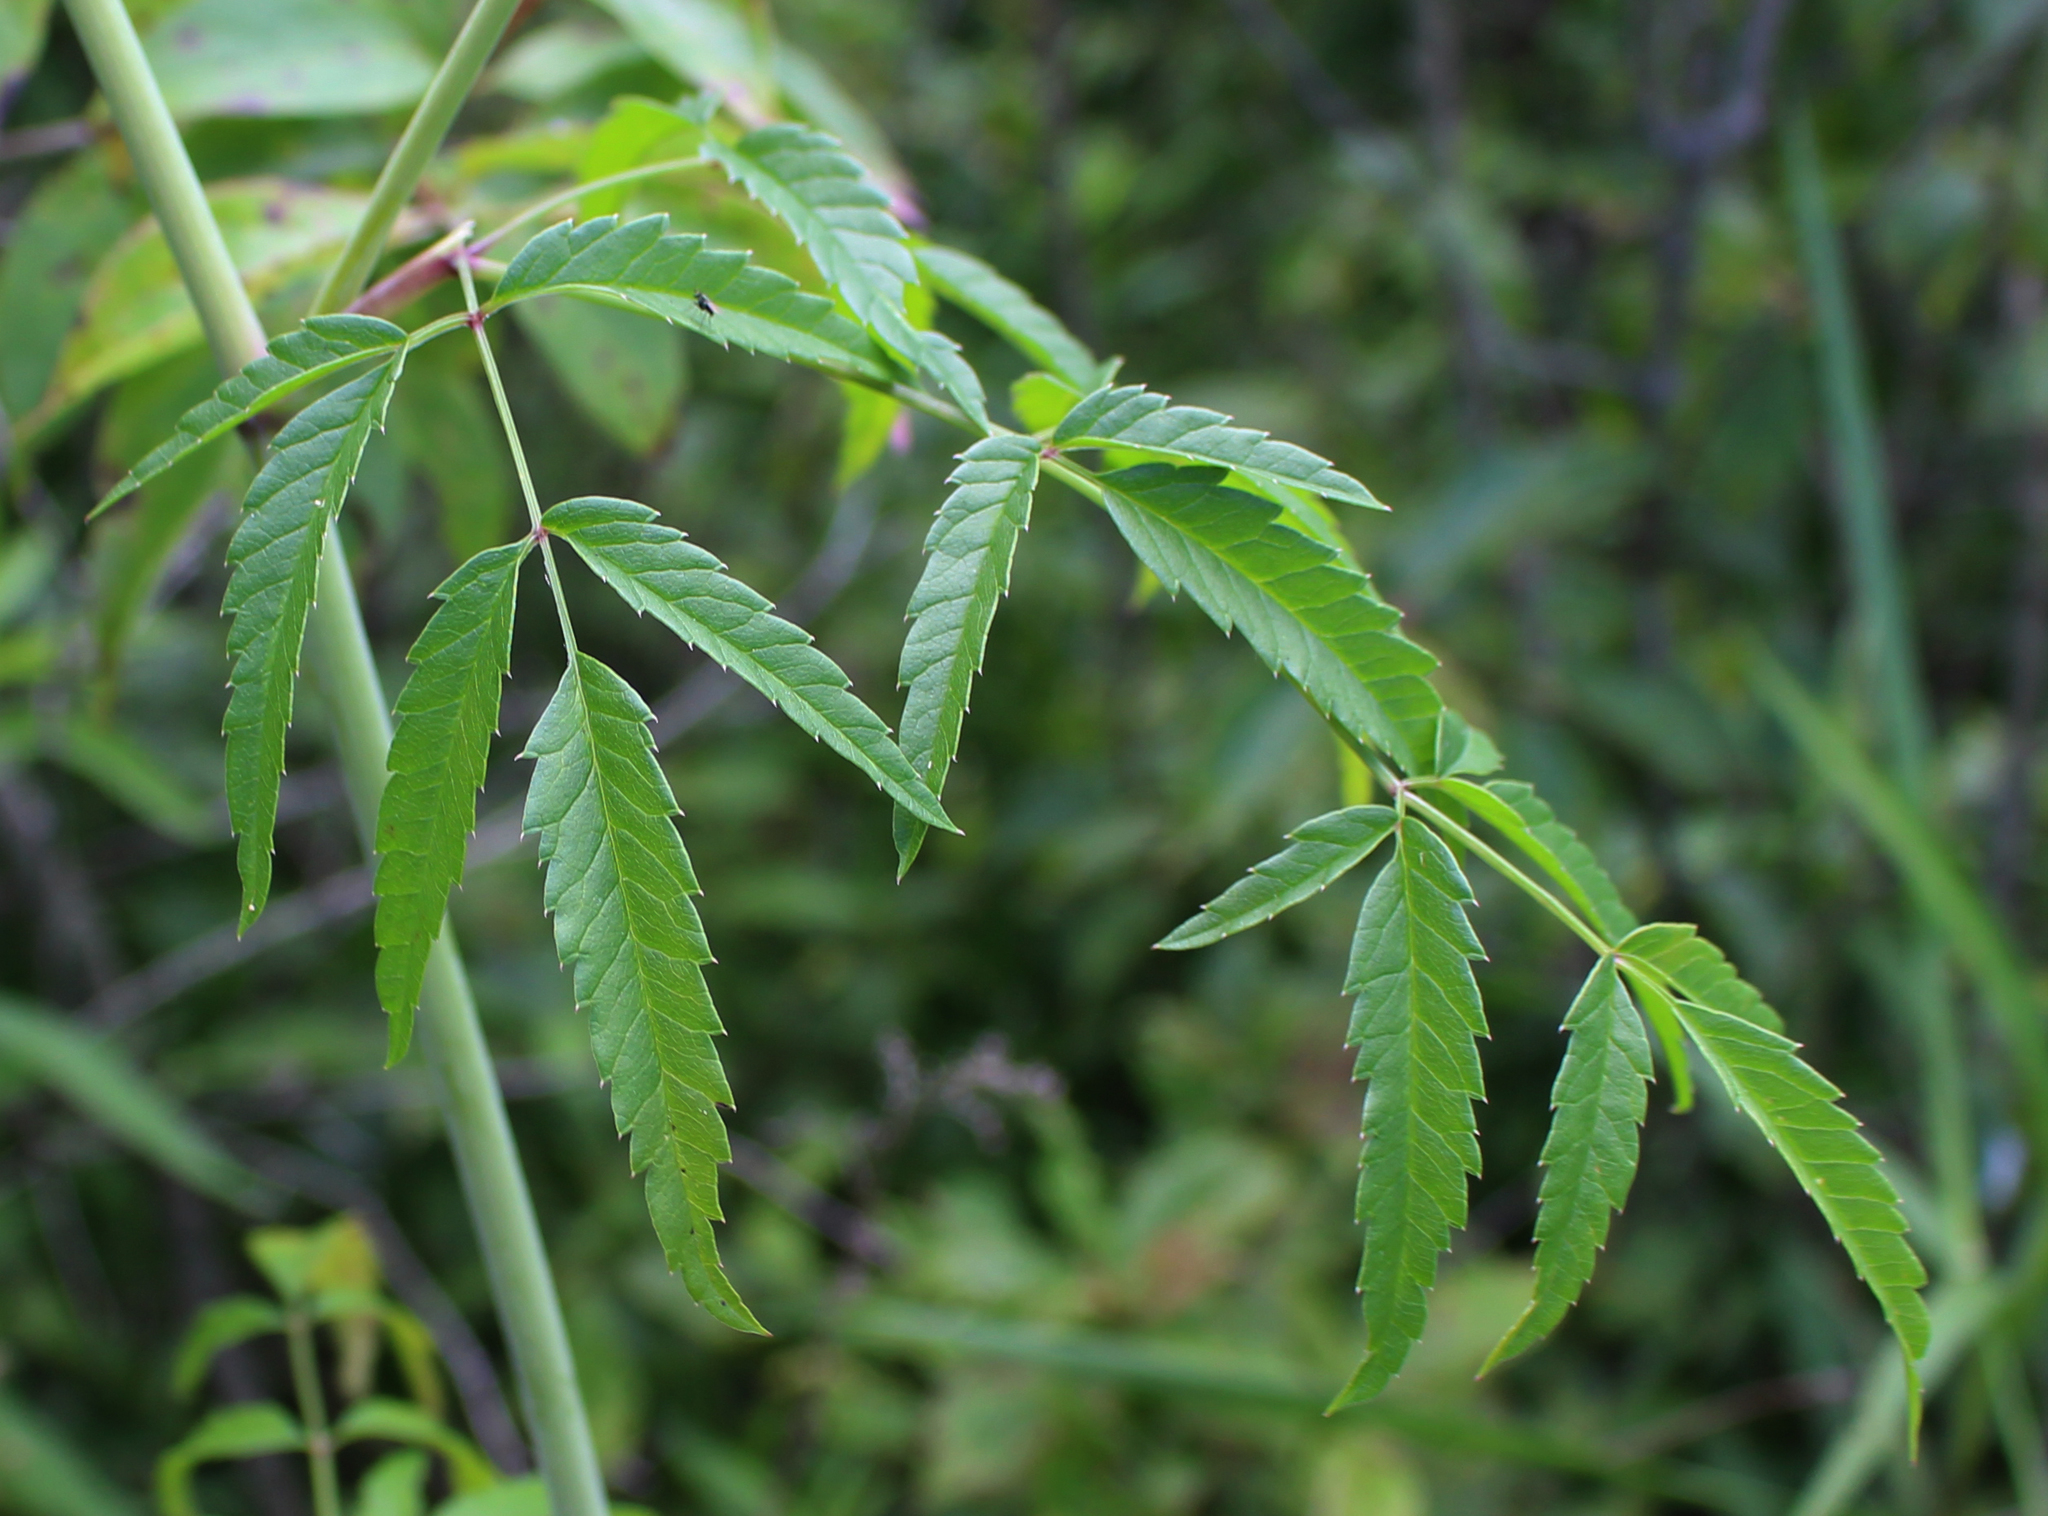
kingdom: Plantae
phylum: Tracheophyta
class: Magnoliopsida
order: Apiales
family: Apiaceae
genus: Cicuta
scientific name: Cicuta maculata
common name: Spotted cowbane
